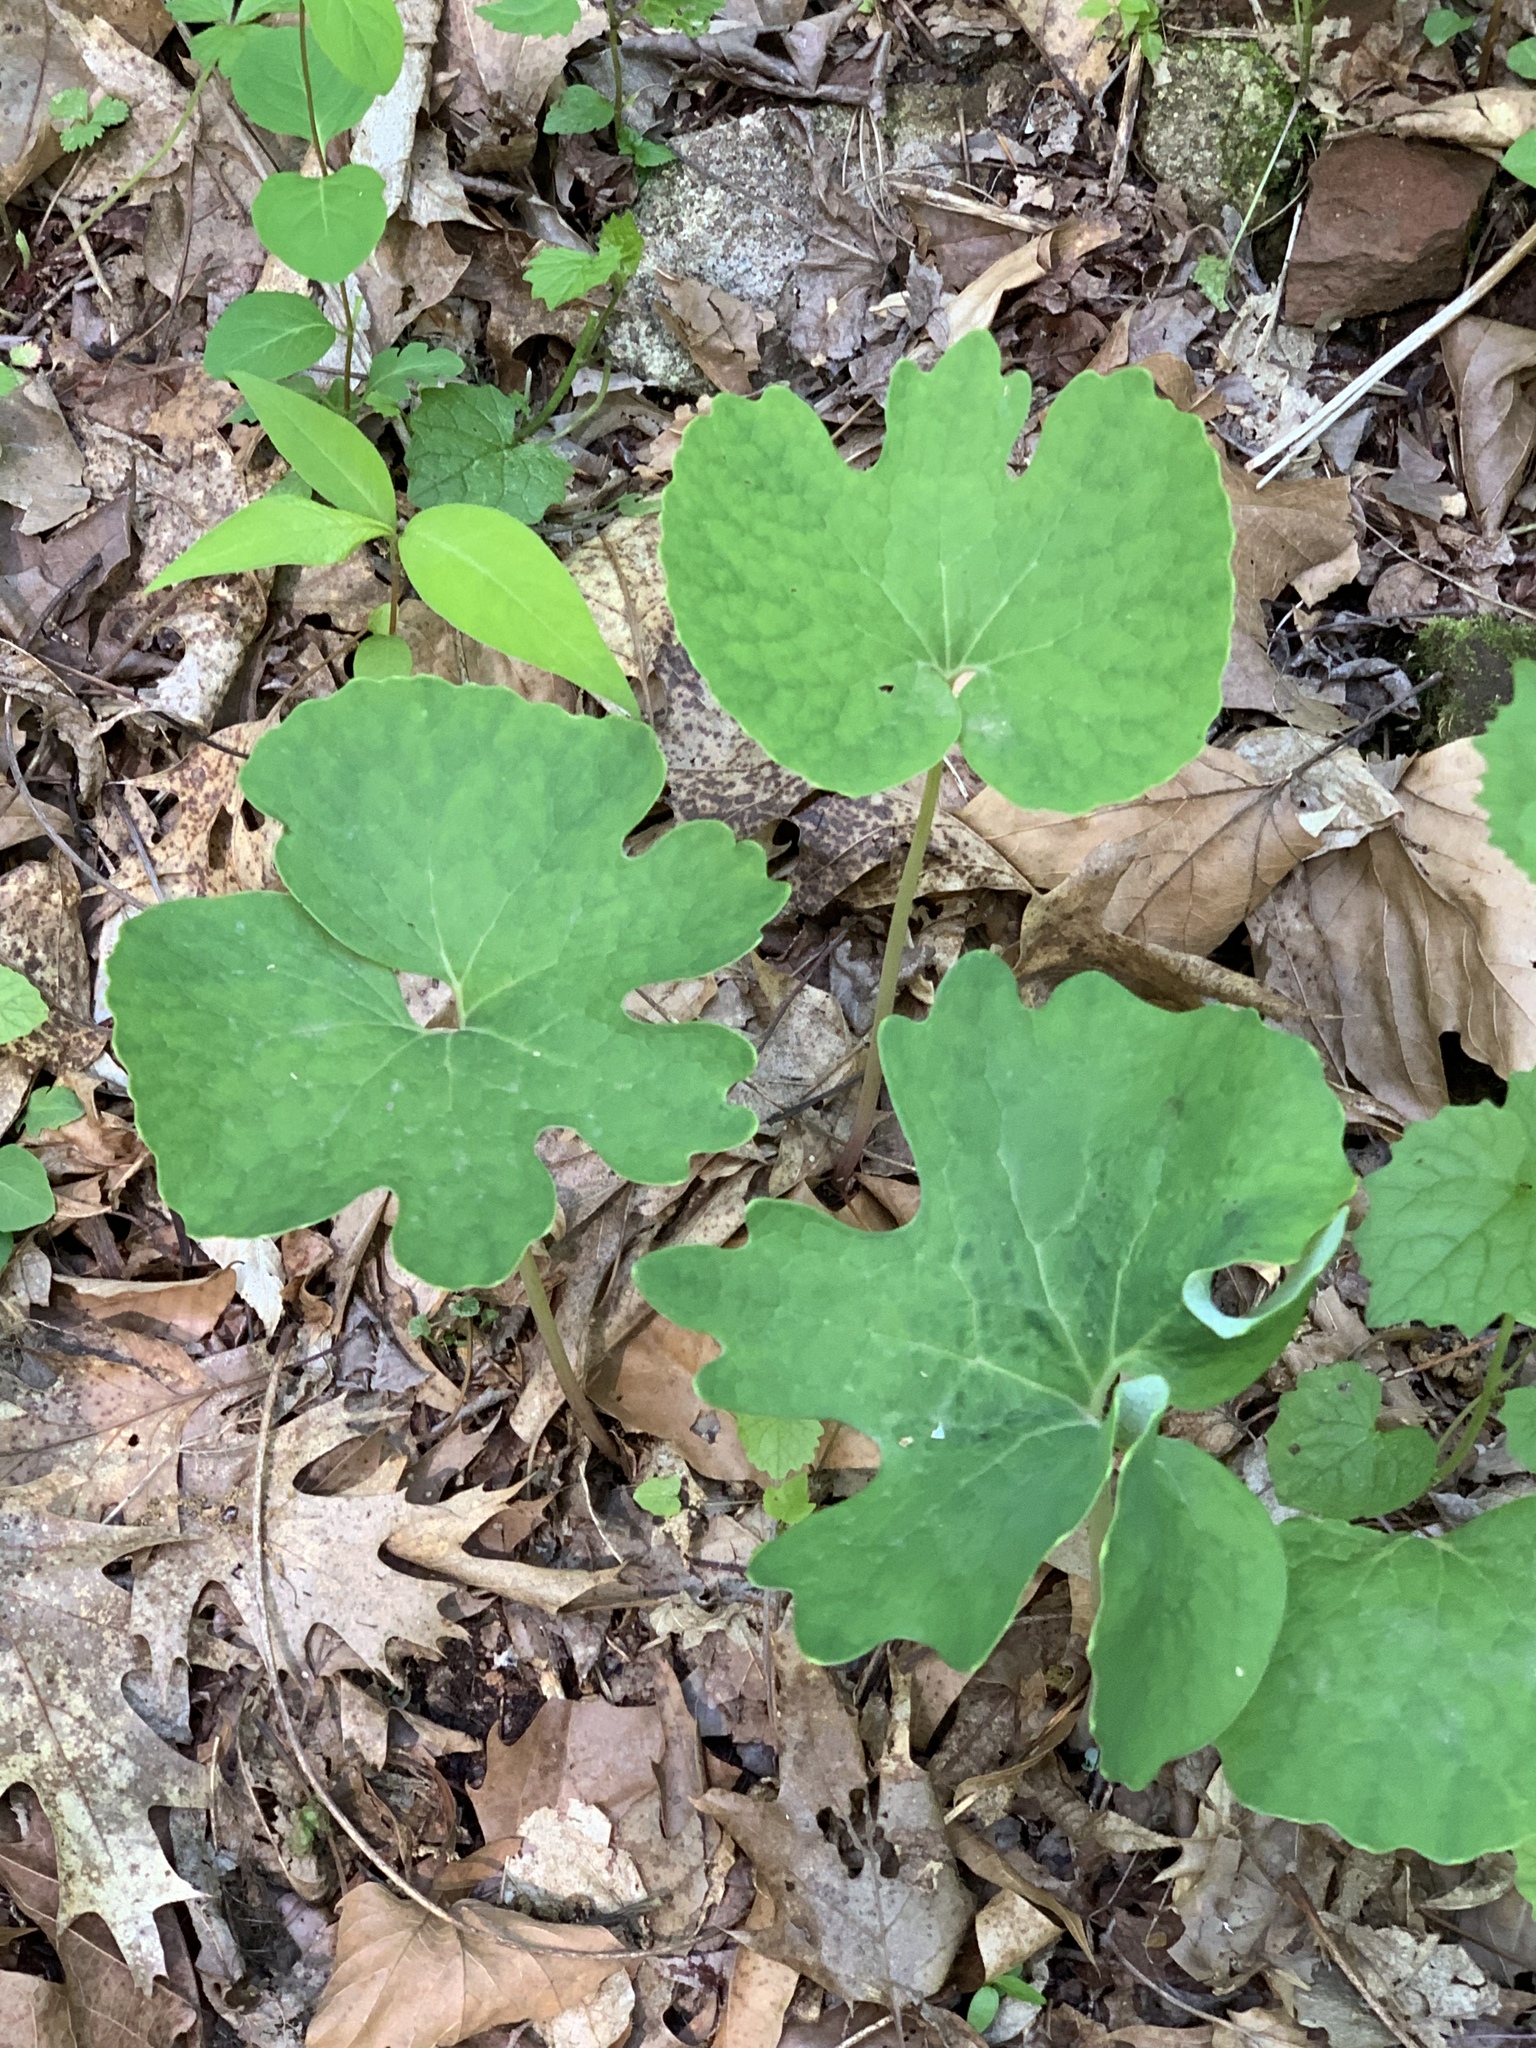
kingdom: Plantae
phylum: Tracheophyta
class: Magnoliopsida
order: Ranunculales
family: Papaveraceae
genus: Sanguinaria
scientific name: Sanguinaria canadensis
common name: Bloodroot
